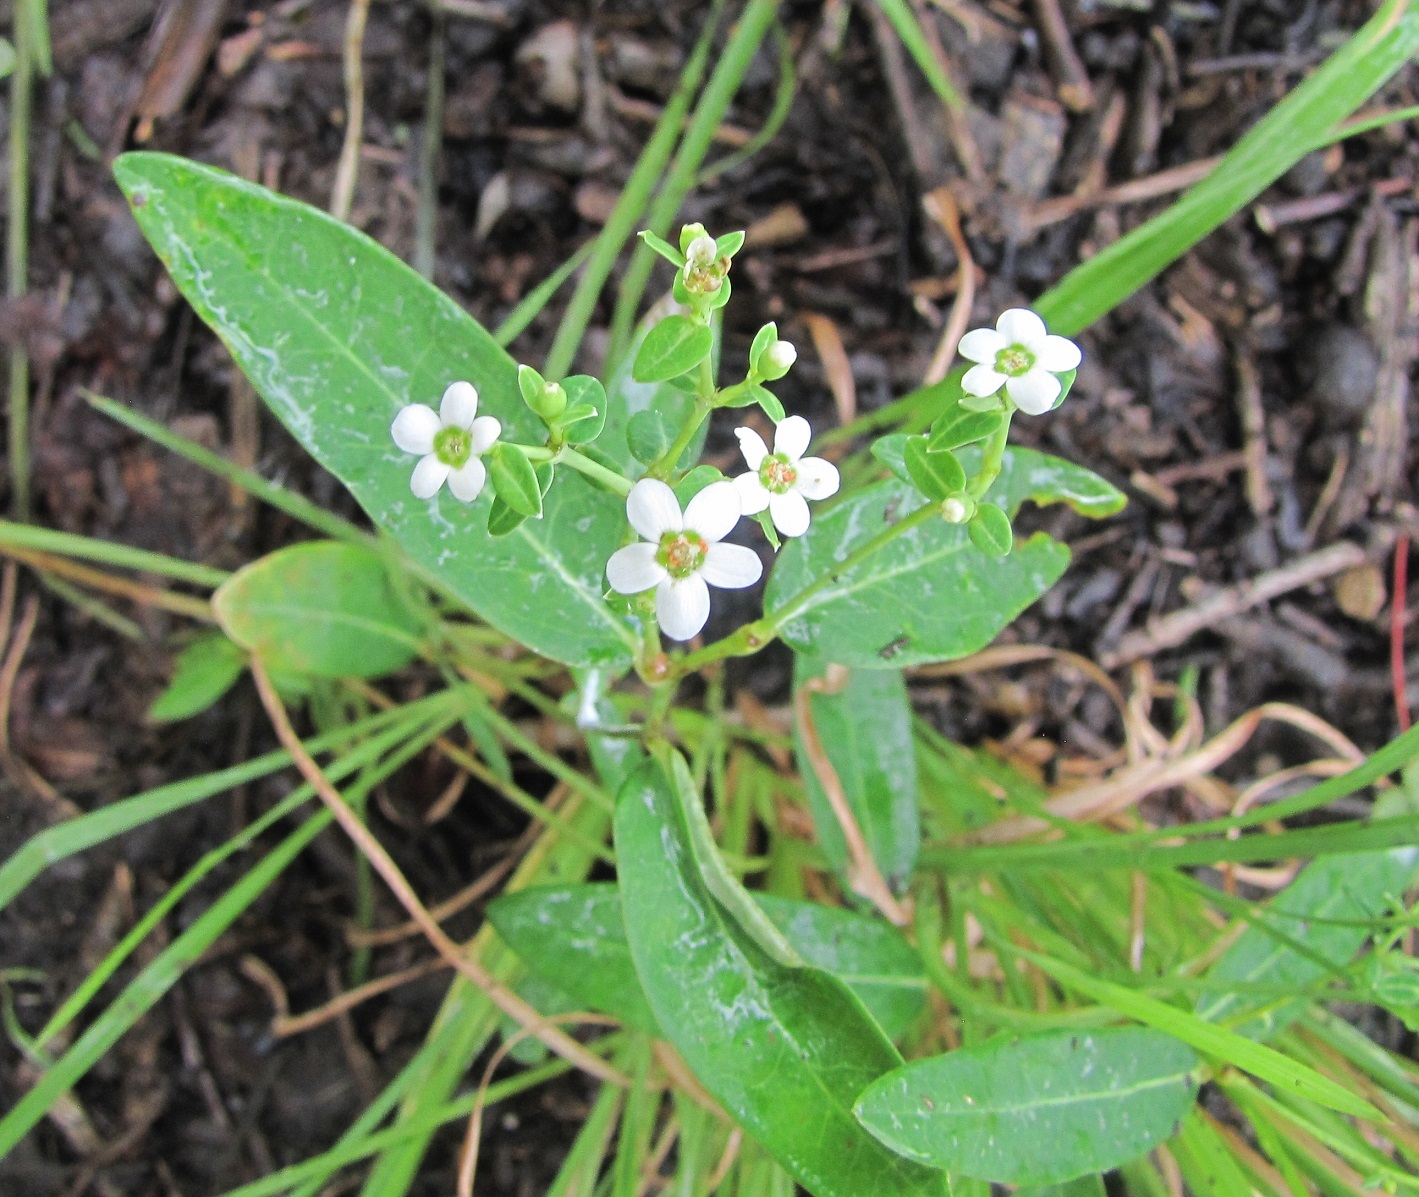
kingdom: Plantae
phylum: Tracheophyta
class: Magnoliopsida
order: Malpighiales
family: Euphorbiaceae
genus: Euphorbia
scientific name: Euphorbia corollata
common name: Flowering spurge
